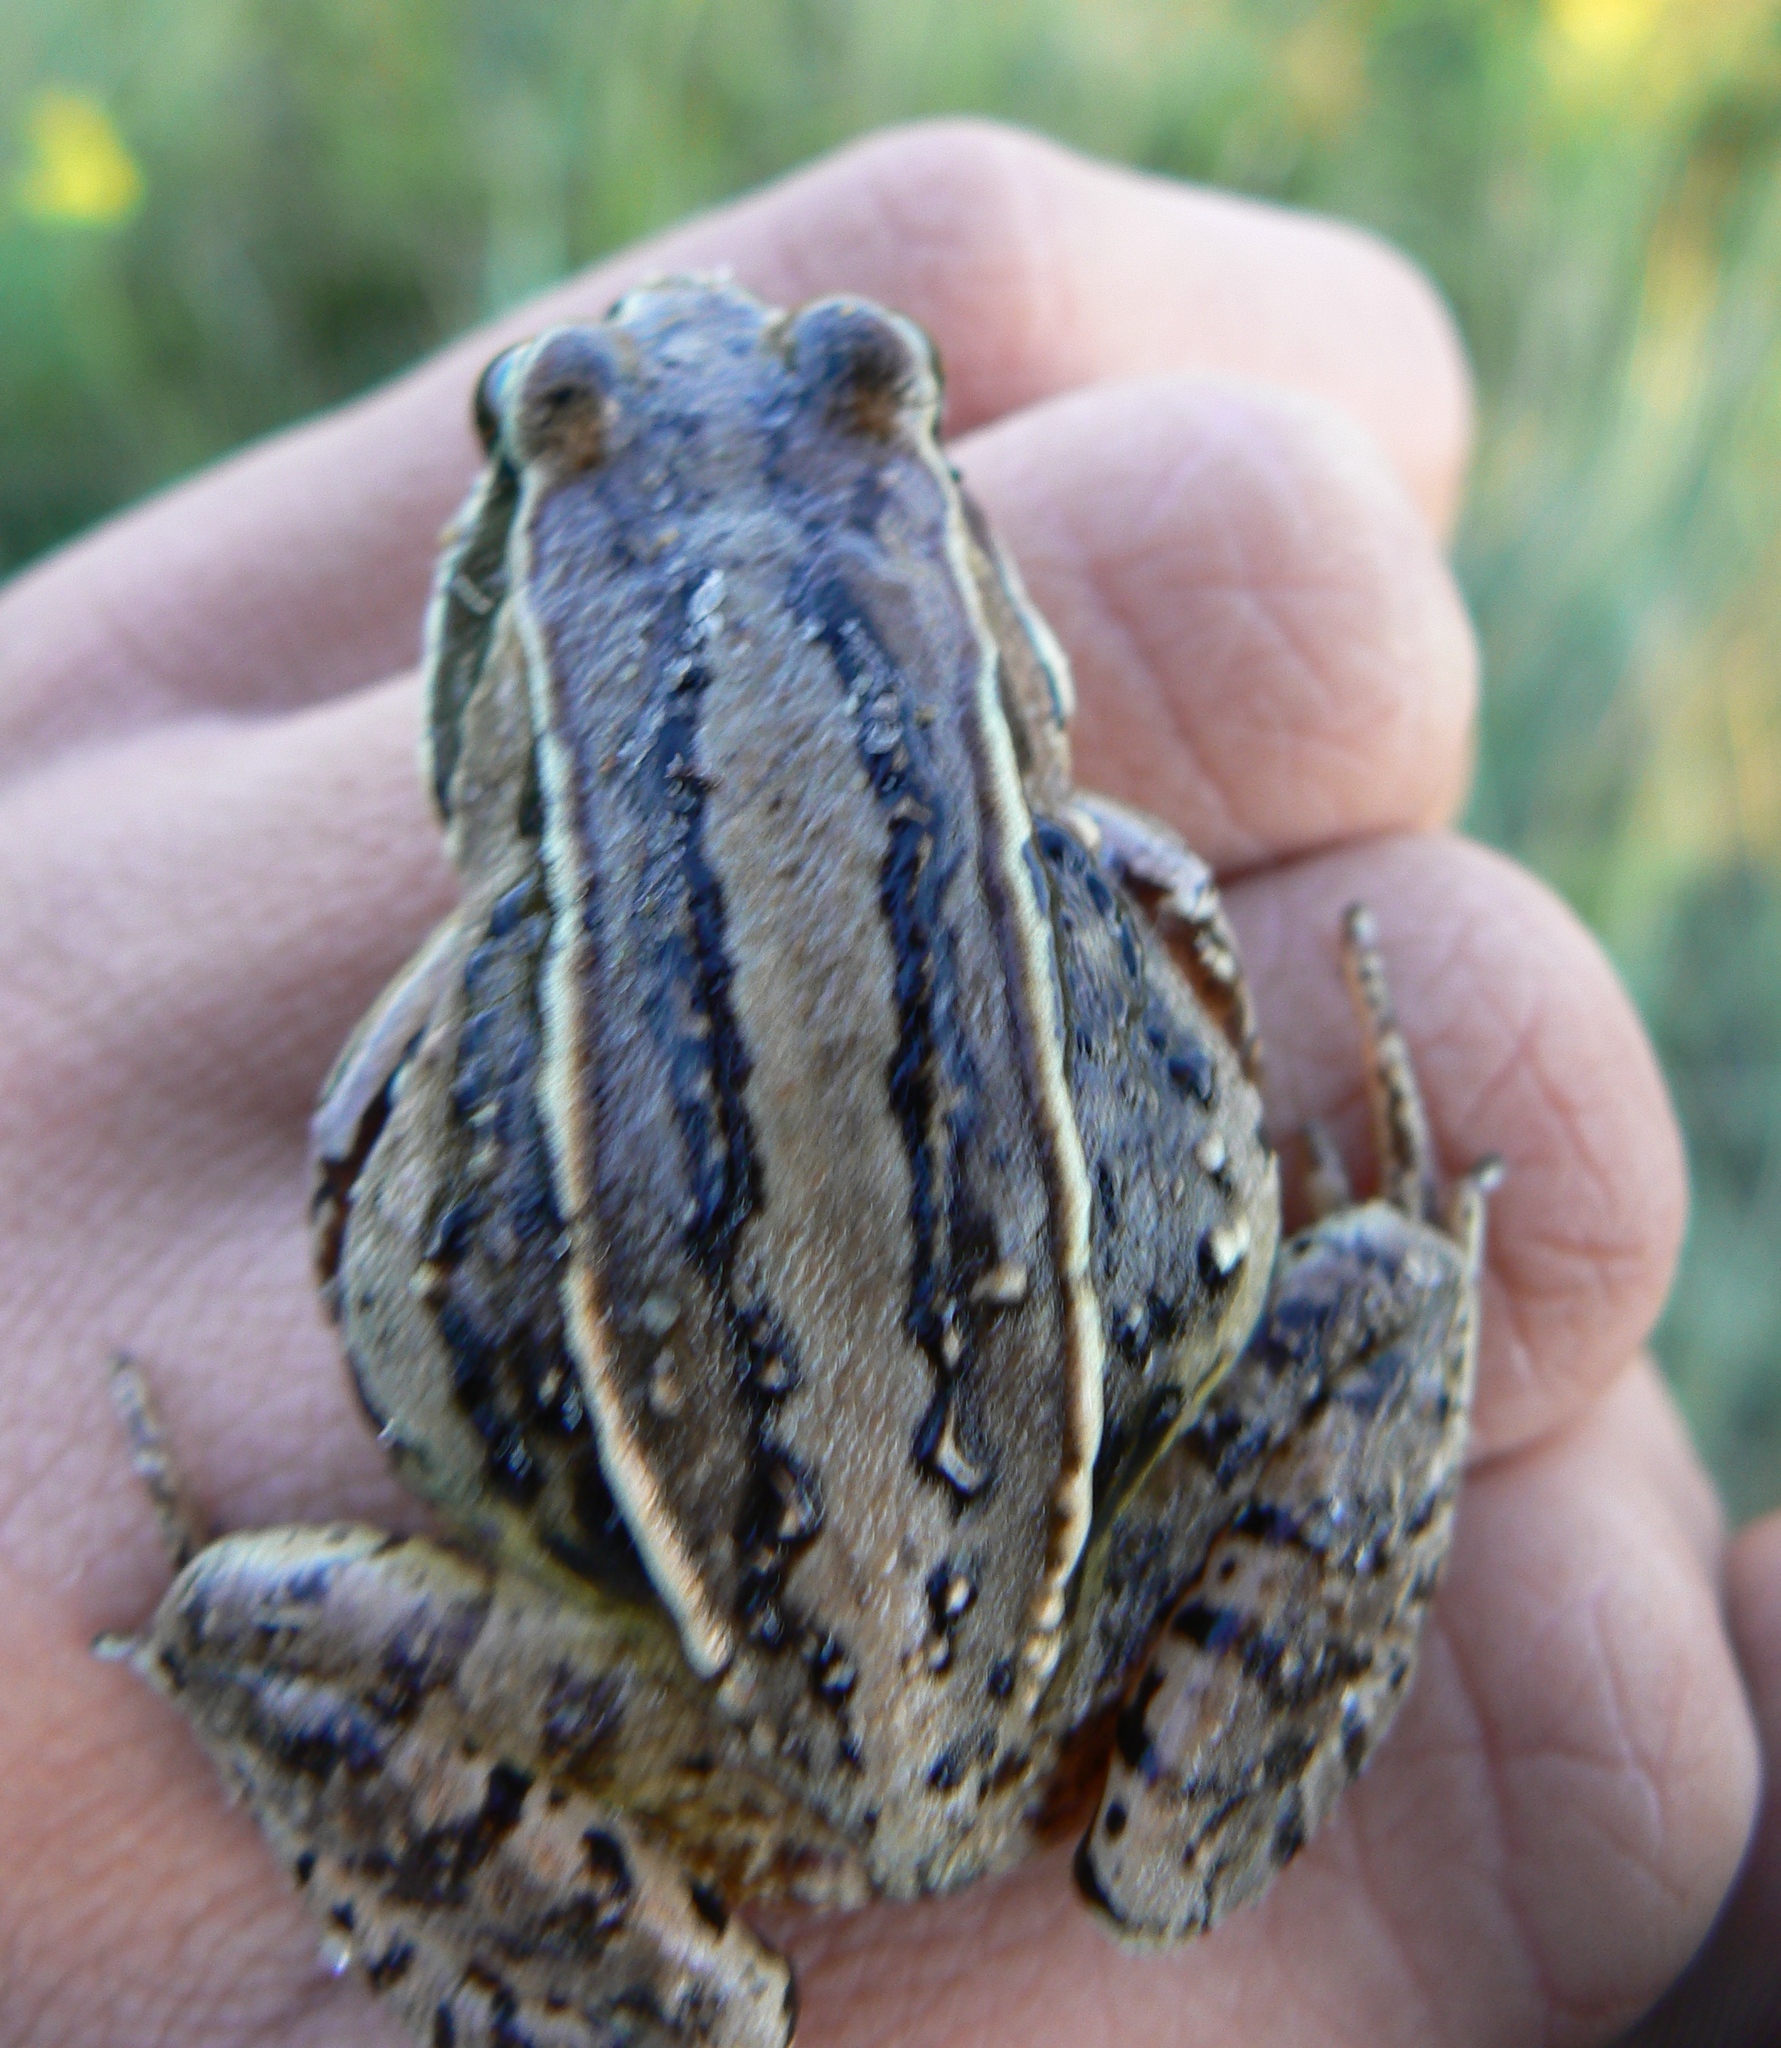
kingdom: Animalia
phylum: Chordata
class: Amphibia
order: Anura
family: Ranidae
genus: Rana
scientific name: Rana arvalis
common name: Moor frog
